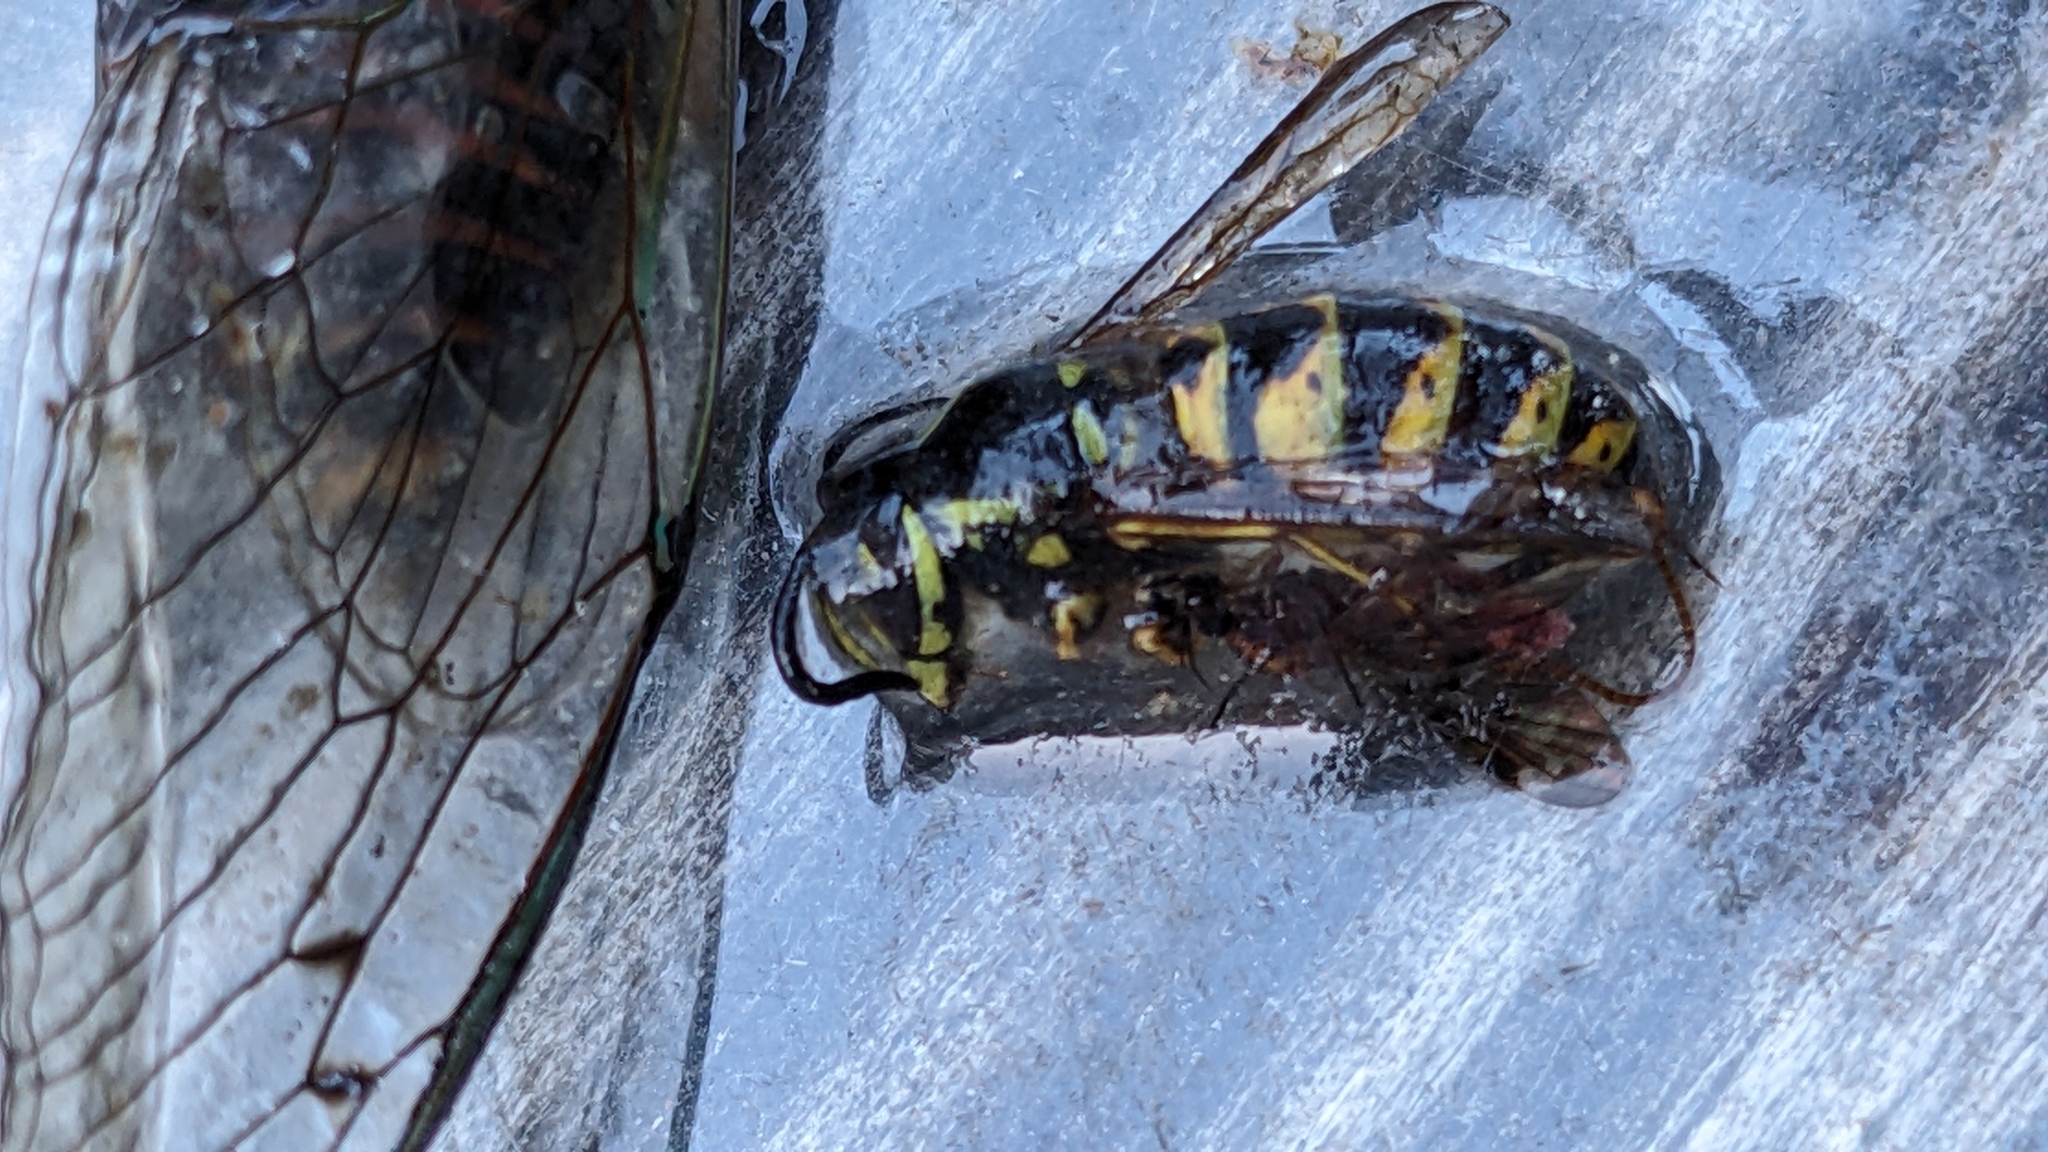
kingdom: Animalia
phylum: Arthropoda
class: Insecta
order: Hymenoptera
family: Vespidae
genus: Vespula
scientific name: Vespula vulgaris
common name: Common wasp
